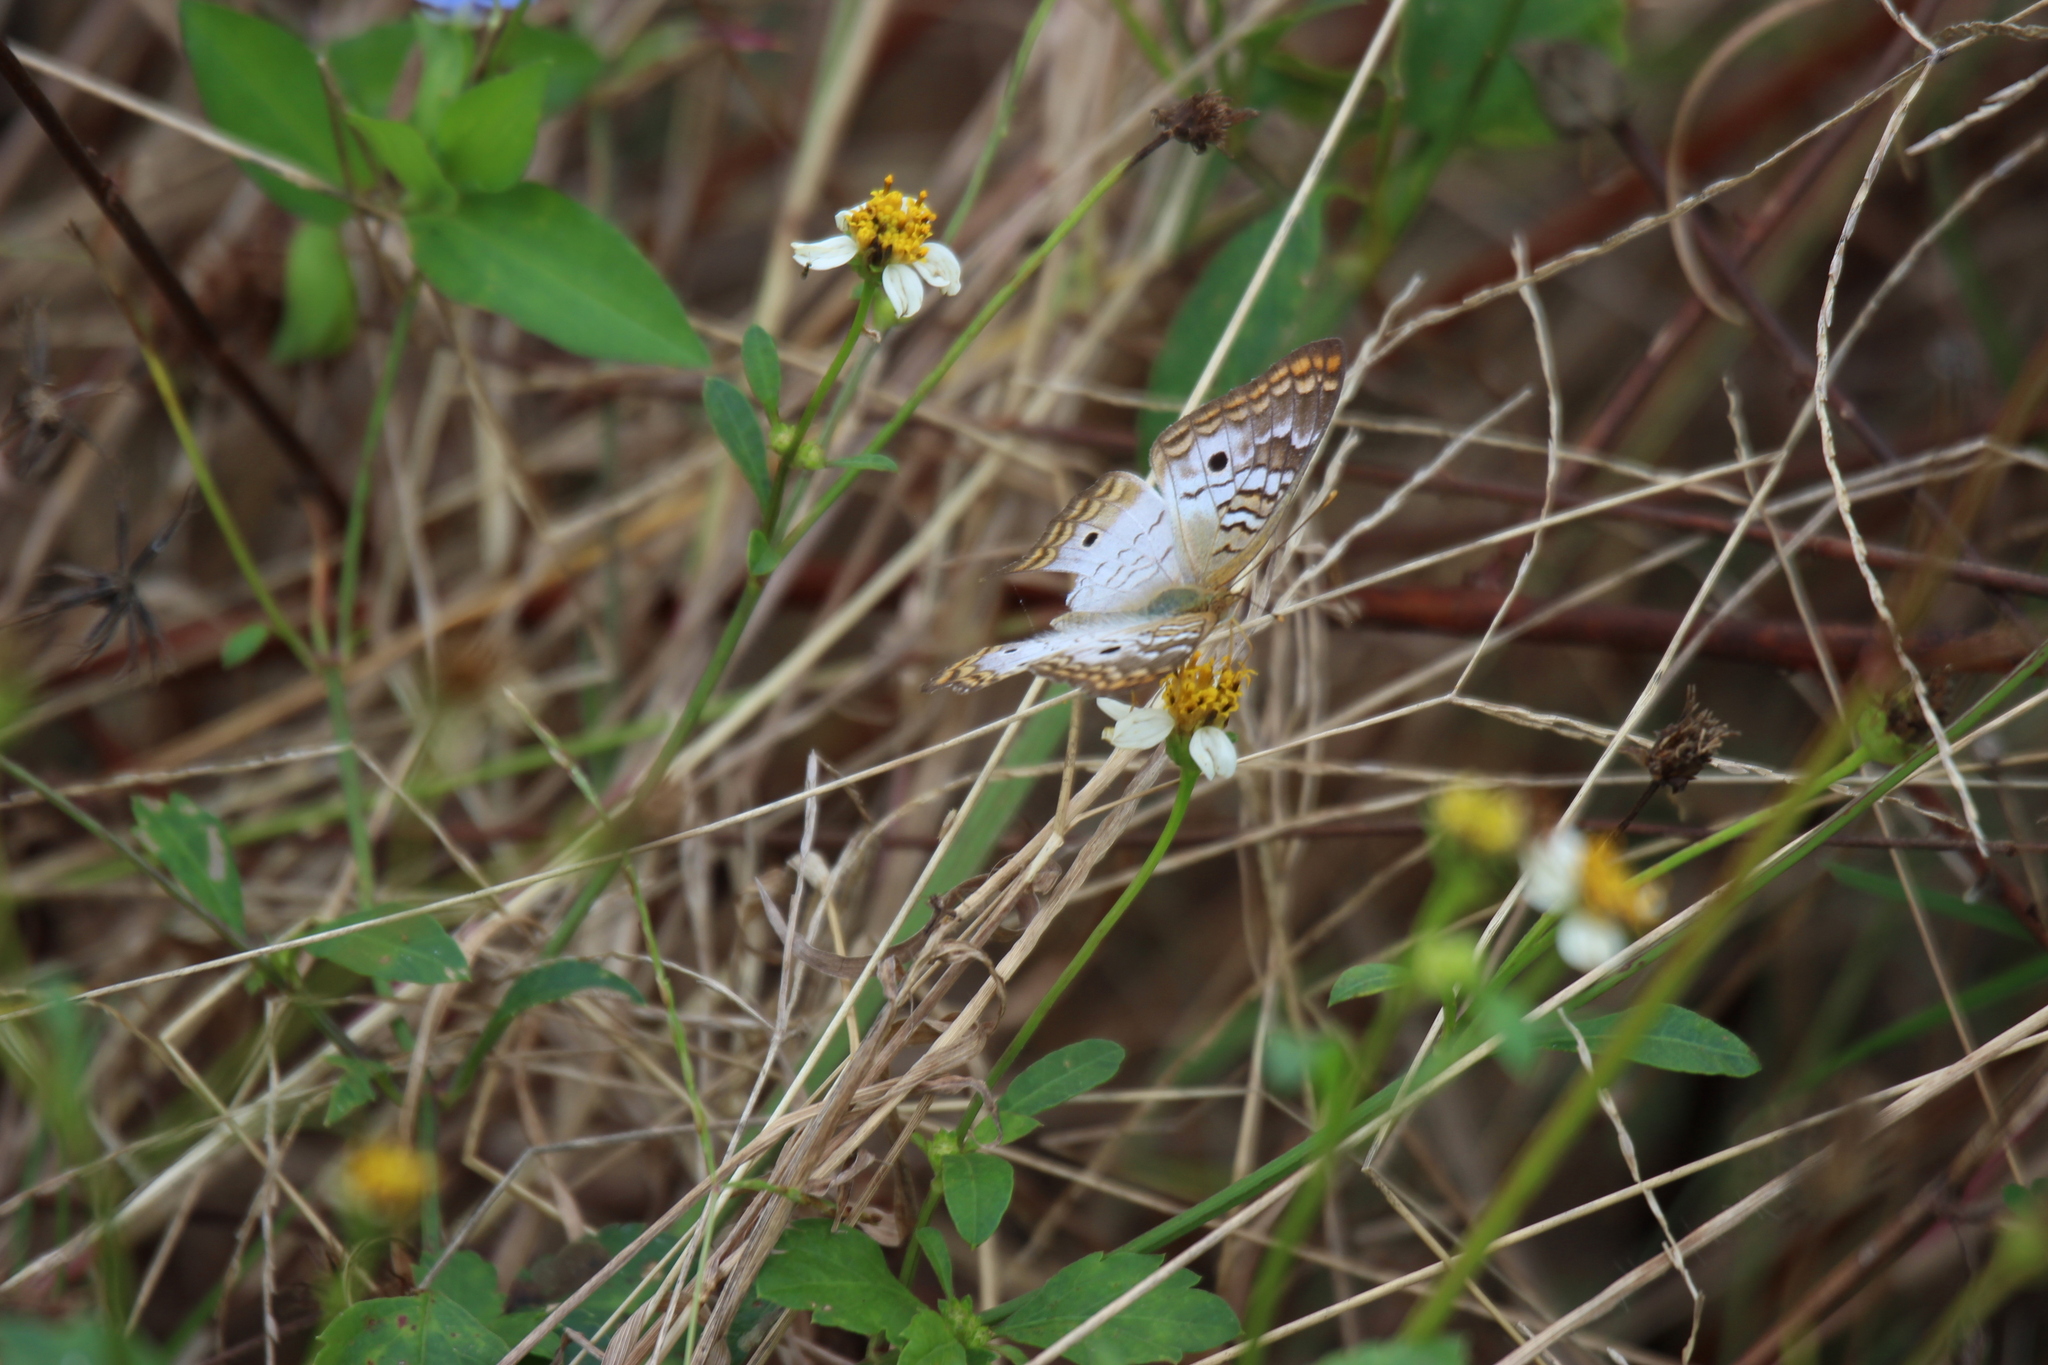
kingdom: Animalia
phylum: Arthropoda
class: Insecta
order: Lepidoptera
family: Nymphalidae
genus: Anartia
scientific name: Anartia jatrophae
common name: White peacock
